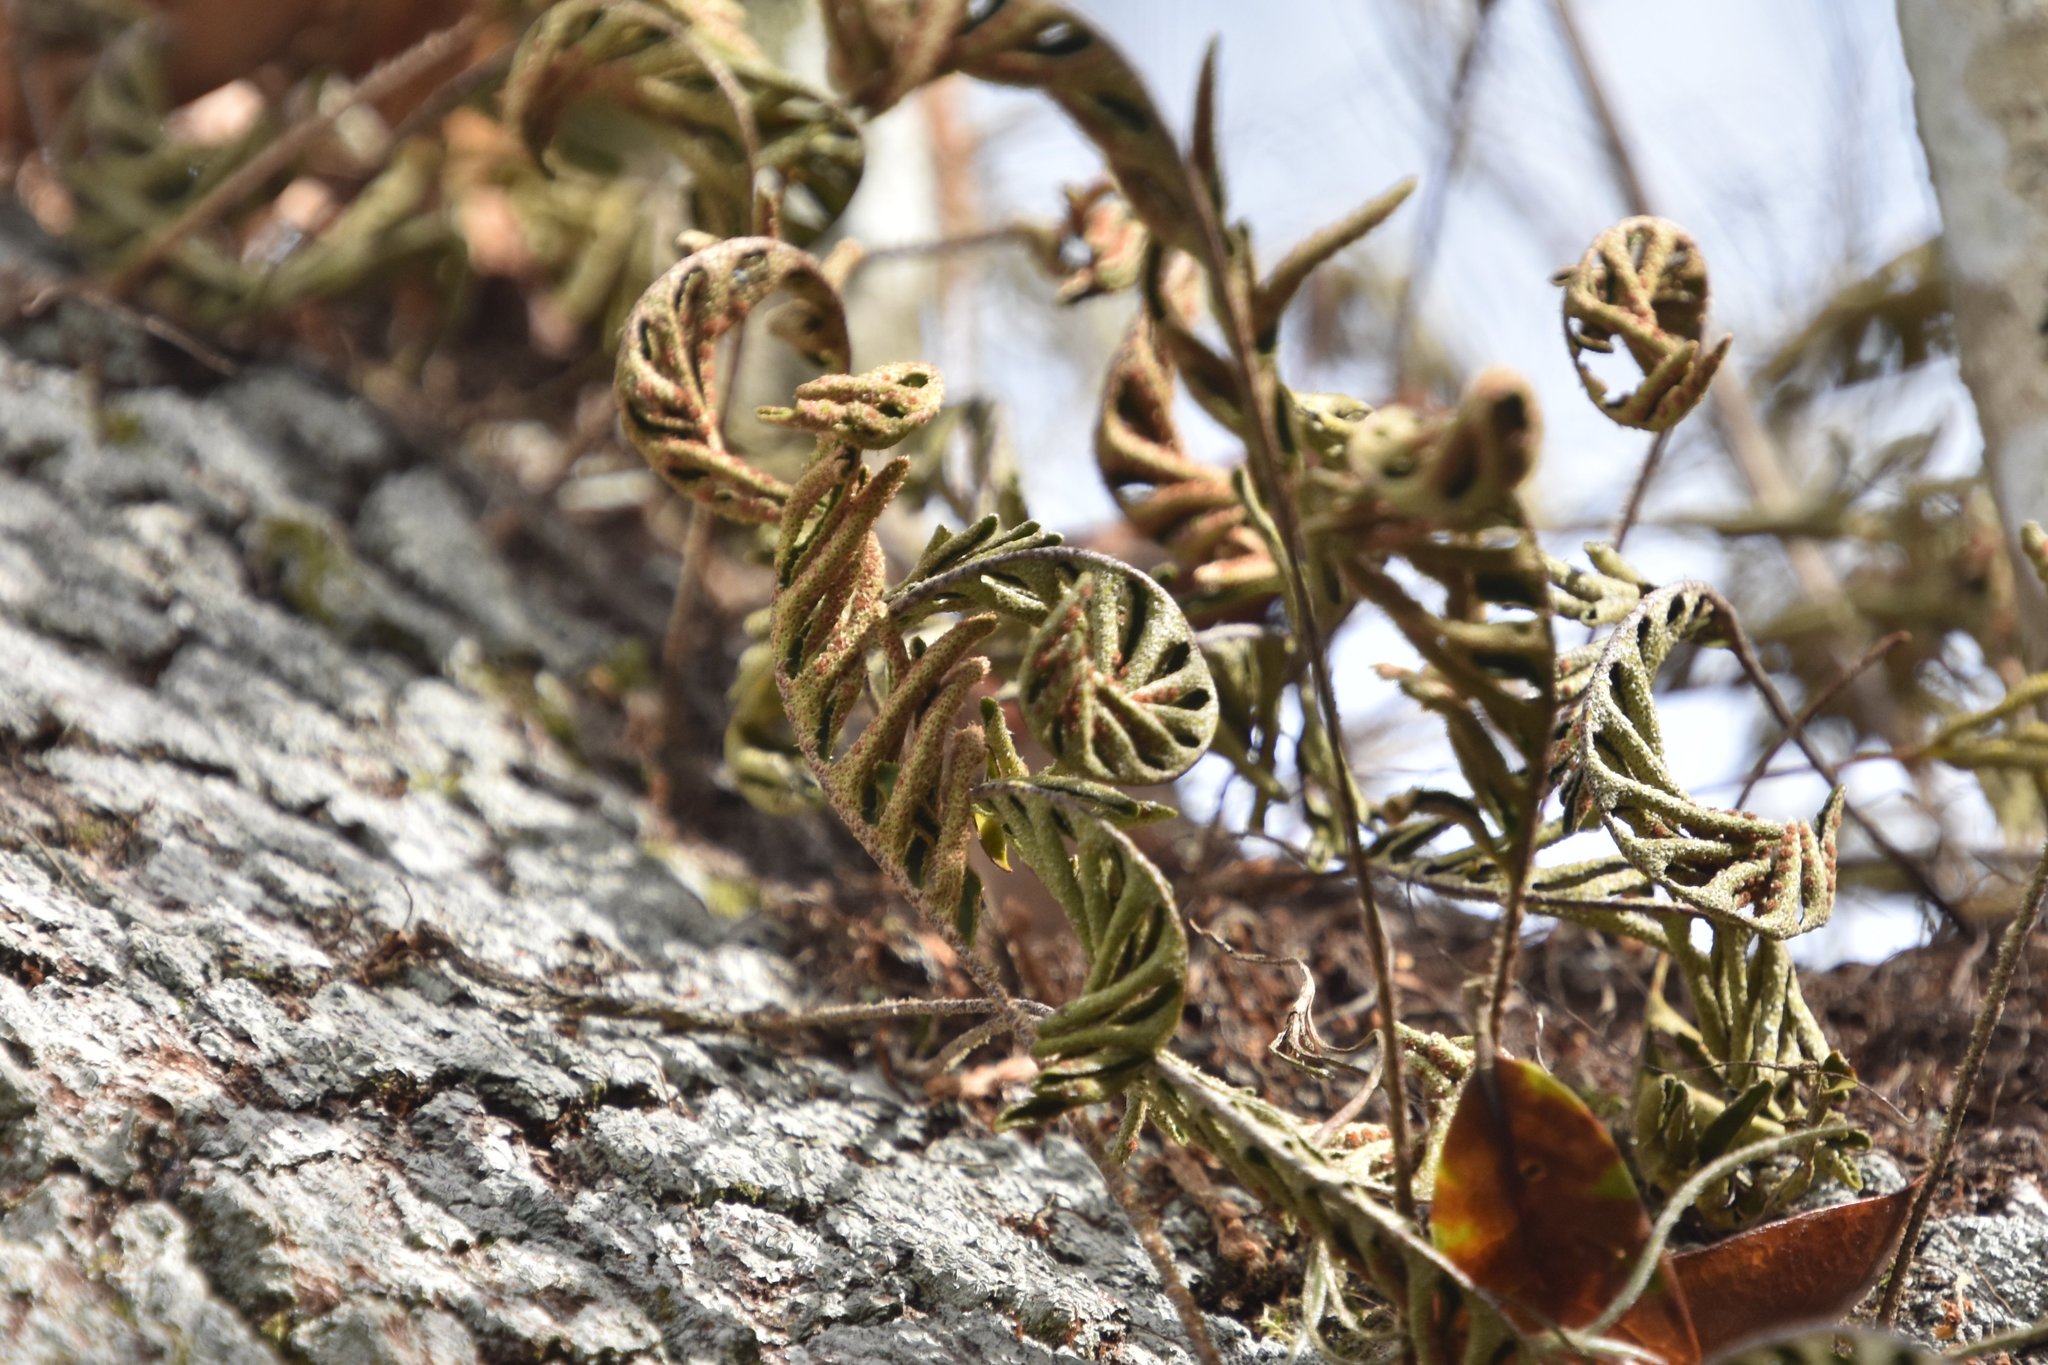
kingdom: Plantae
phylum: Tracheophyta
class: Polypodiopsida
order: Polypodiales
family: Polypodiaceae
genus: Pleopeltis
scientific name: Pleopeltis michauxiana
